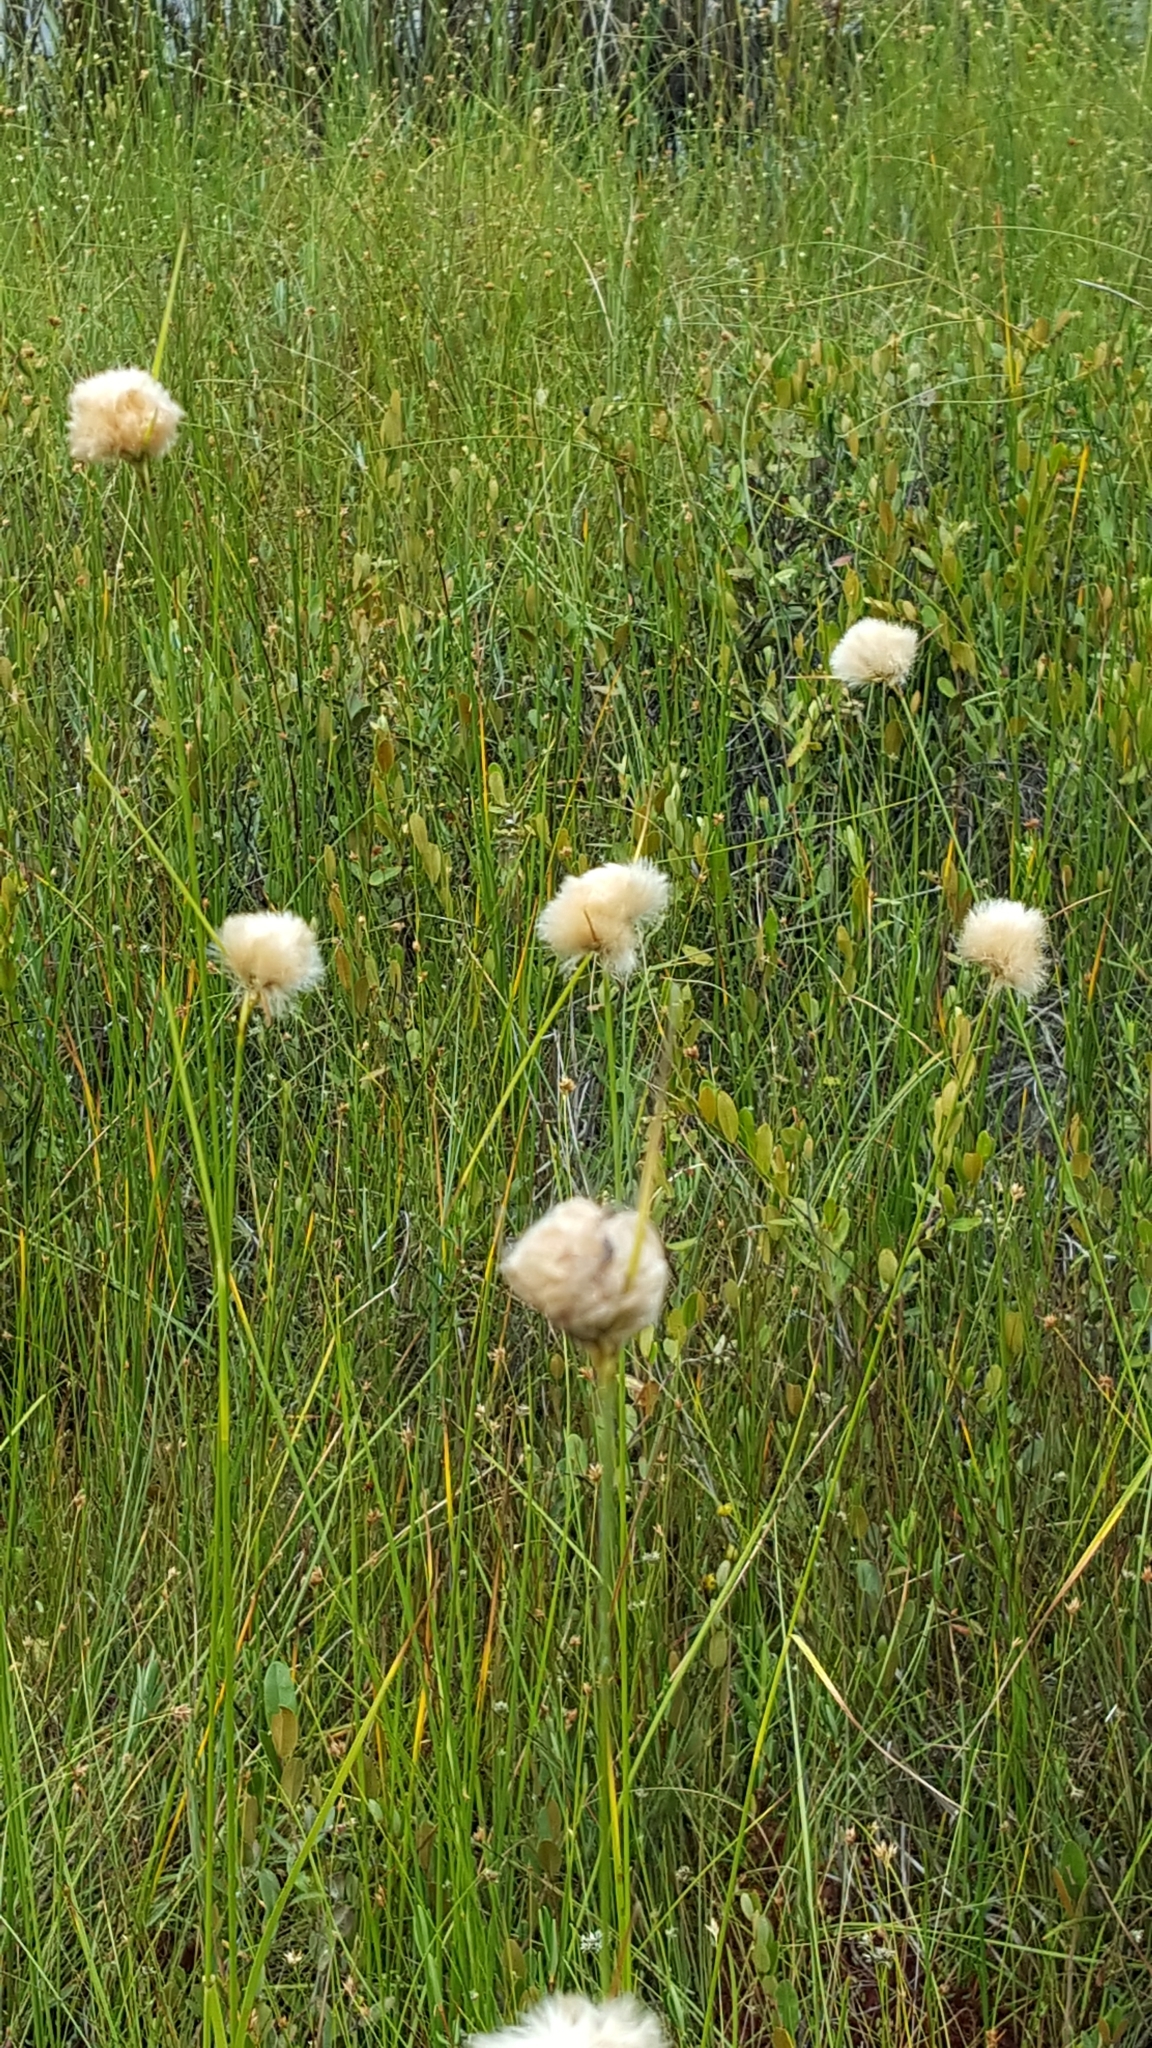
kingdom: Plantae
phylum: Tracheophyta
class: Liliopsida
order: Poales
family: Cyperaceae
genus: Eriophorum
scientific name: Eriophorum virginicum
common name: Tawny cottongrass
